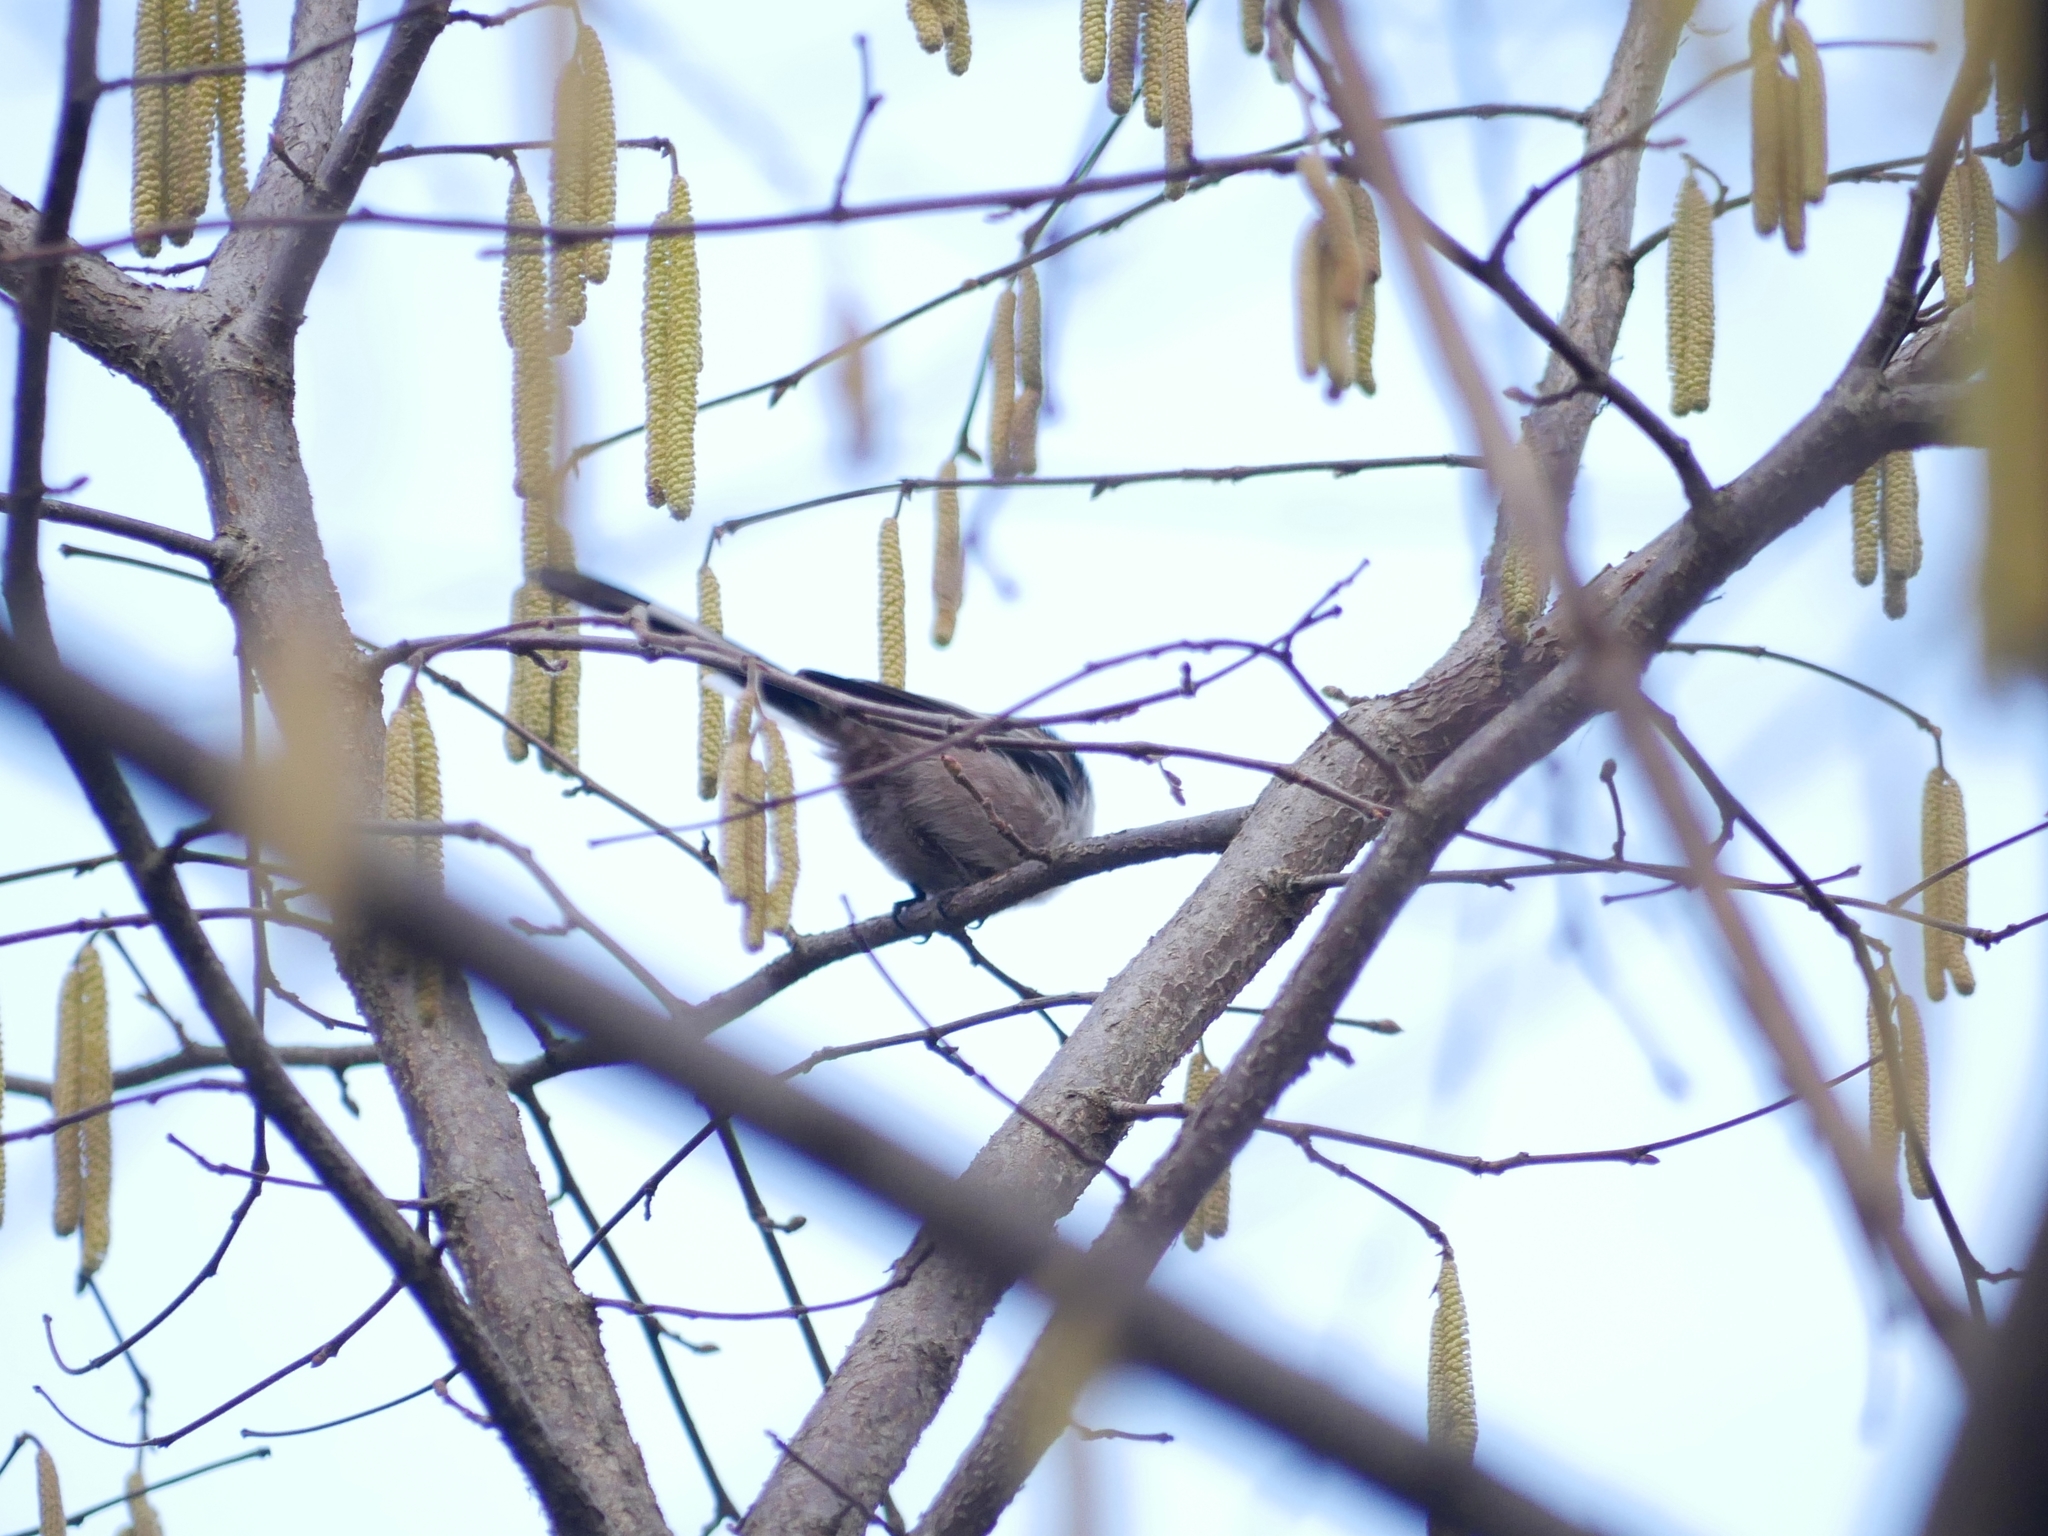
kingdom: Animalia
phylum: Chordata
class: Aves
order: Passeriformes
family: Aegithalidae
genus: Aegithalos
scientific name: Aegithalos caudatus
